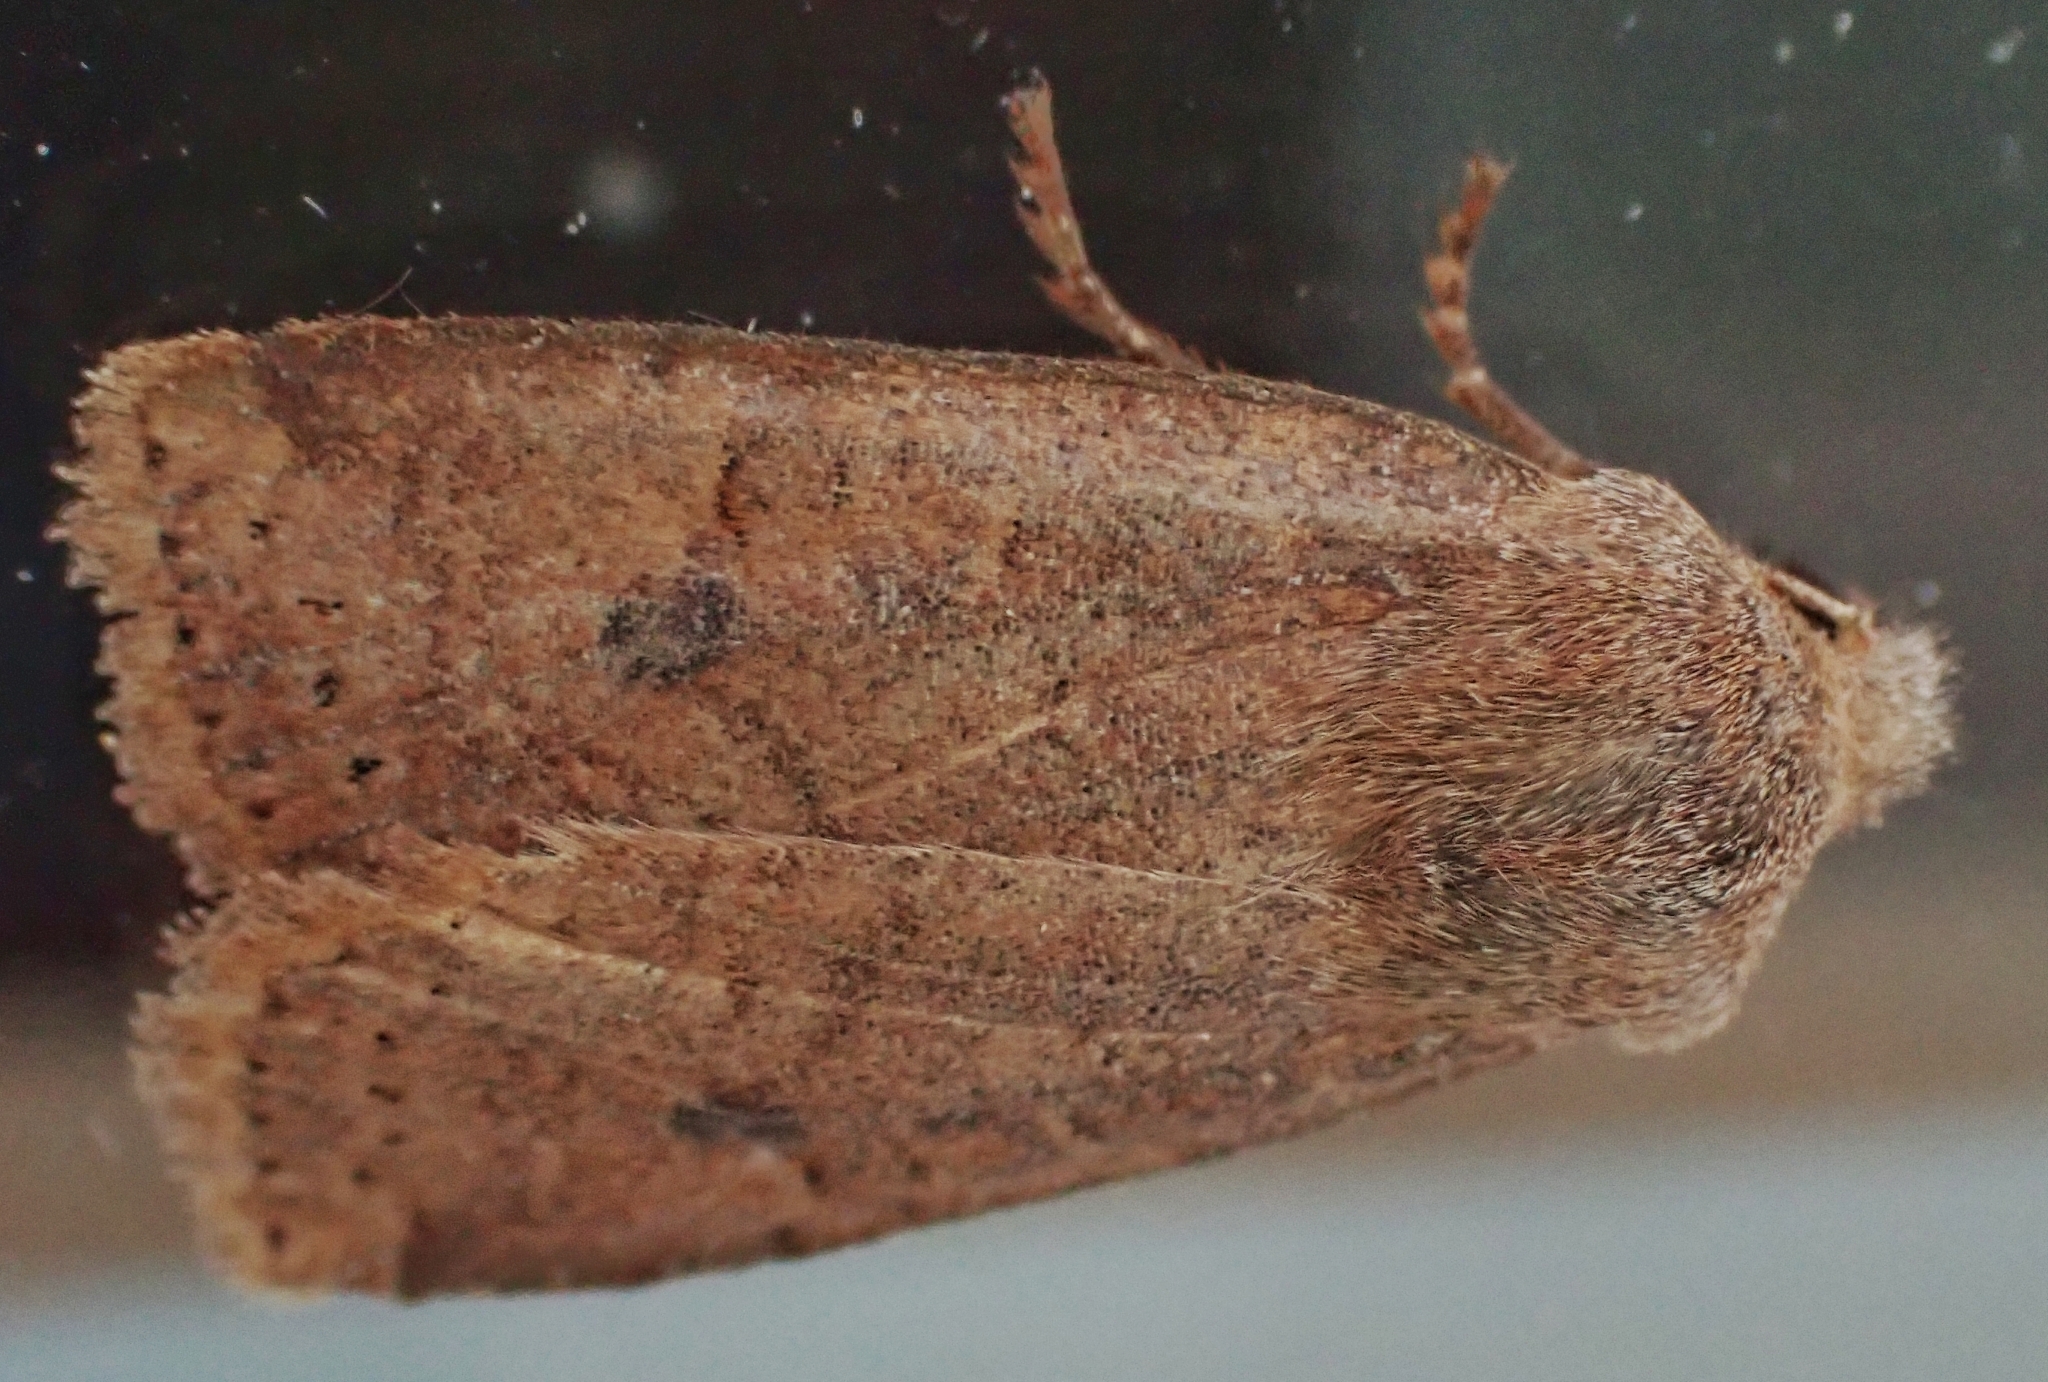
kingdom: Animalia
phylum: Arthropoda
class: Insecta
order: Lepidoptera
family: Noctuidae
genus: Conistra
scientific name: Conistra vaccinii
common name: Chestnut
